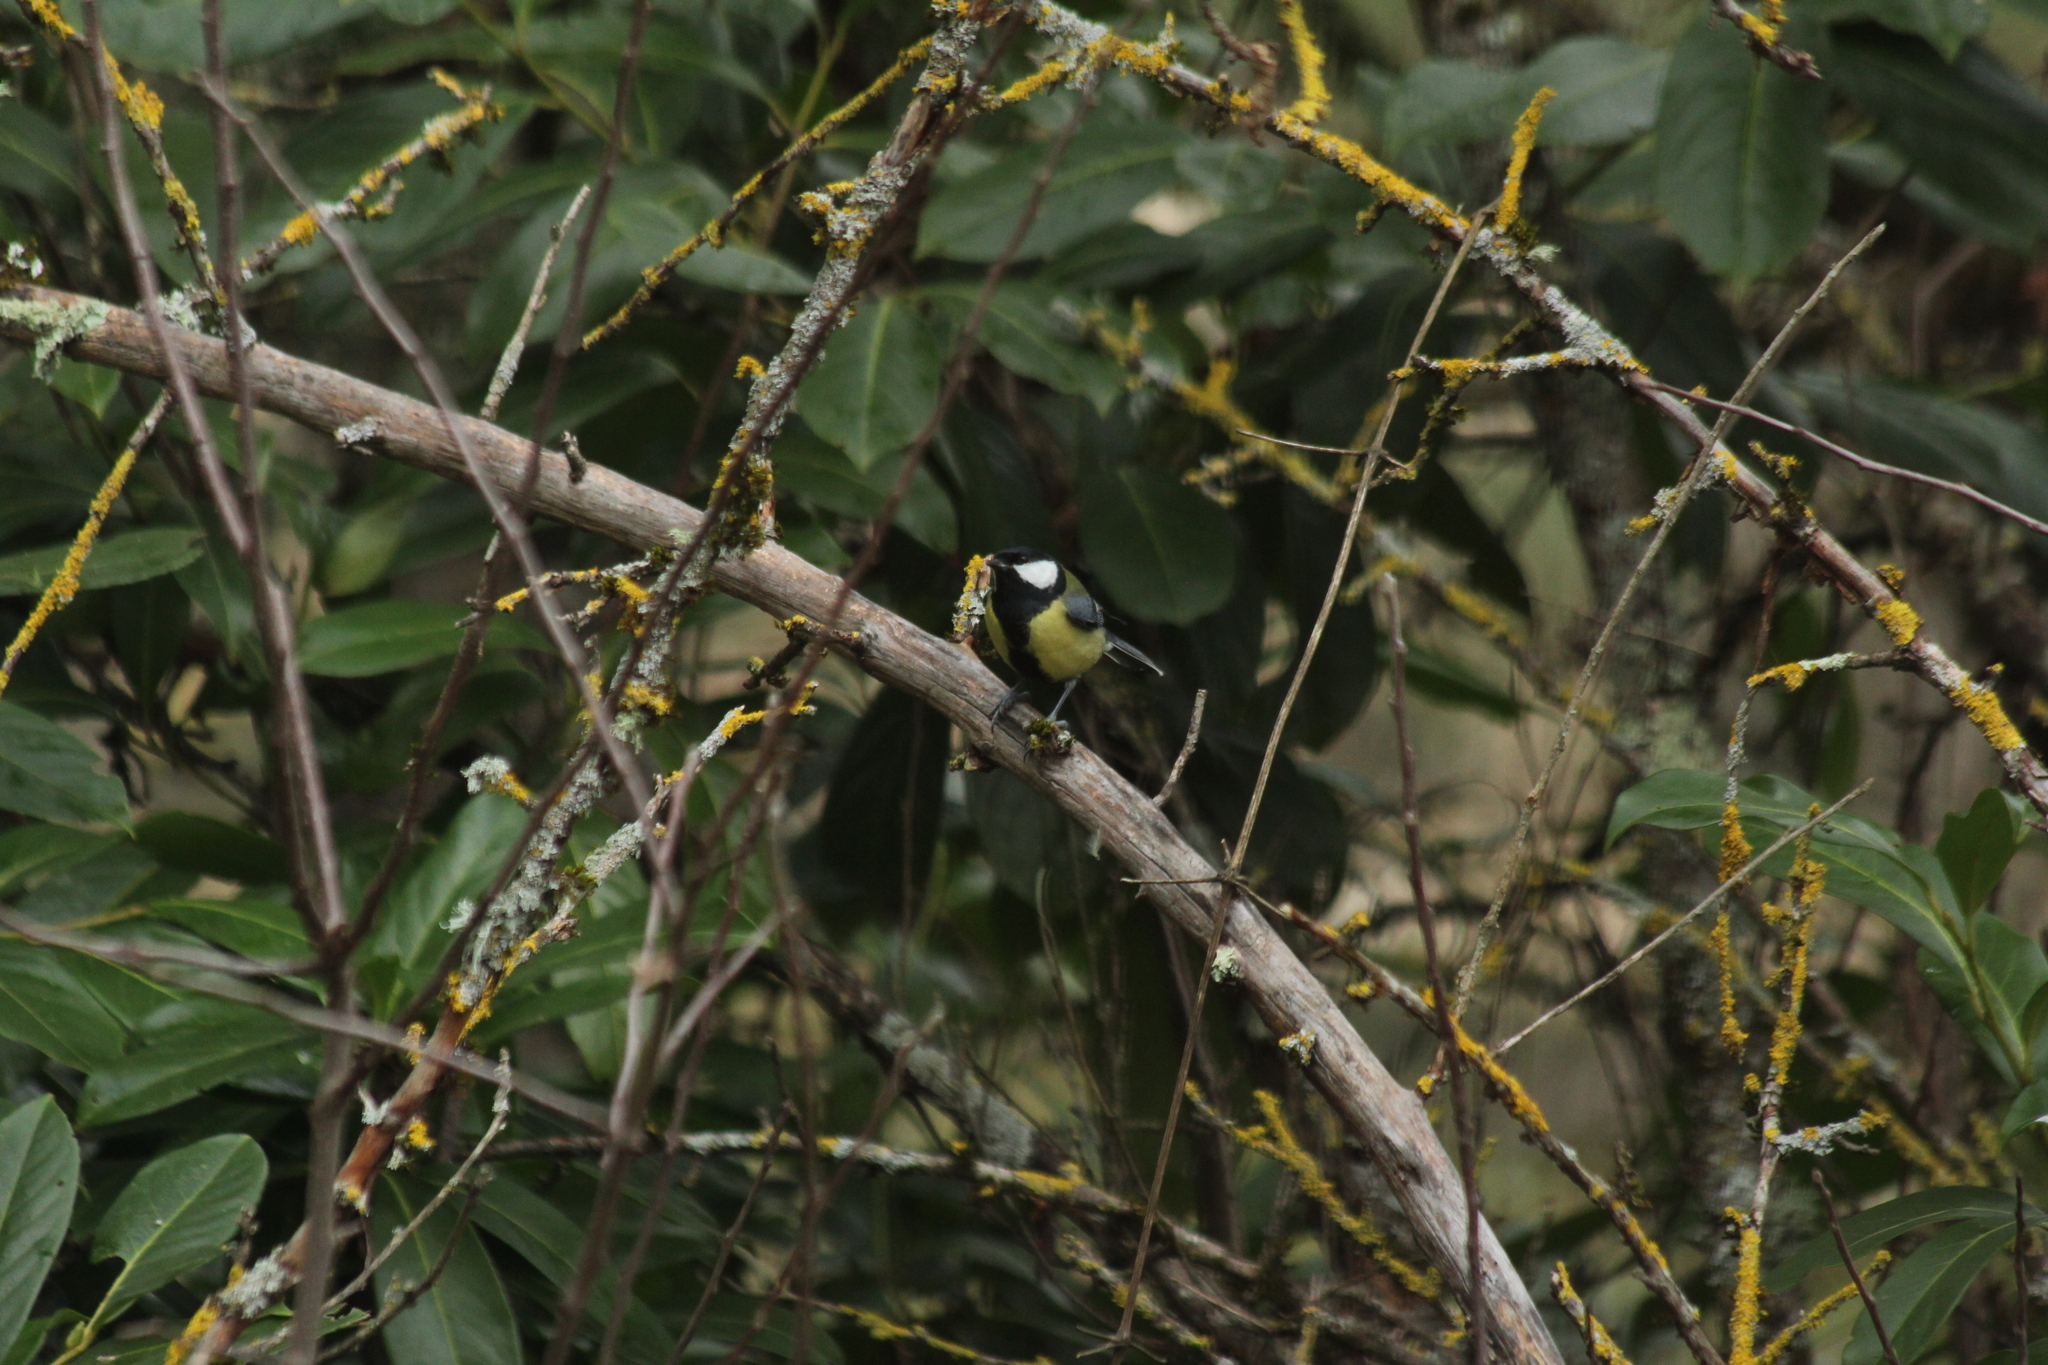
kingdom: Animalia
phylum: Chordata
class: Aves
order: Passeriformes
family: Paridae
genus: Parus
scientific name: Parus major
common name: Great tit
